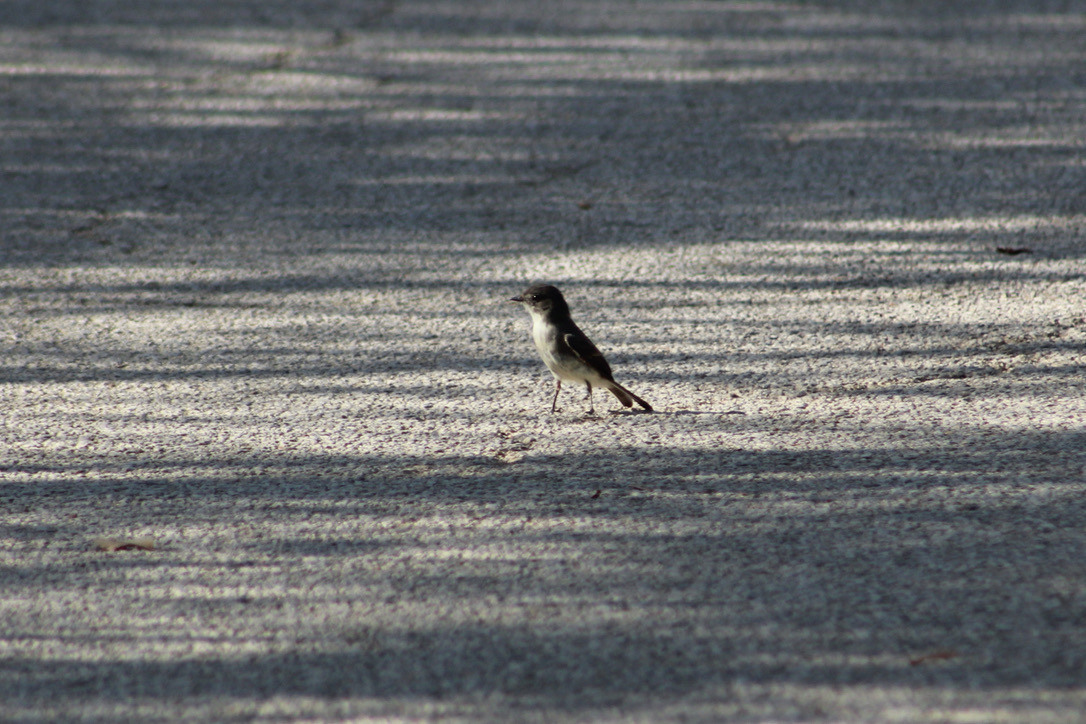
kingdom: Animalia
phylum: Chordata
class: Aves
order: Passeriformes
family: Tyrannidae
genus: Sayornis
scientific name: Sayornis phoebe
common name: Eastern phoebe
